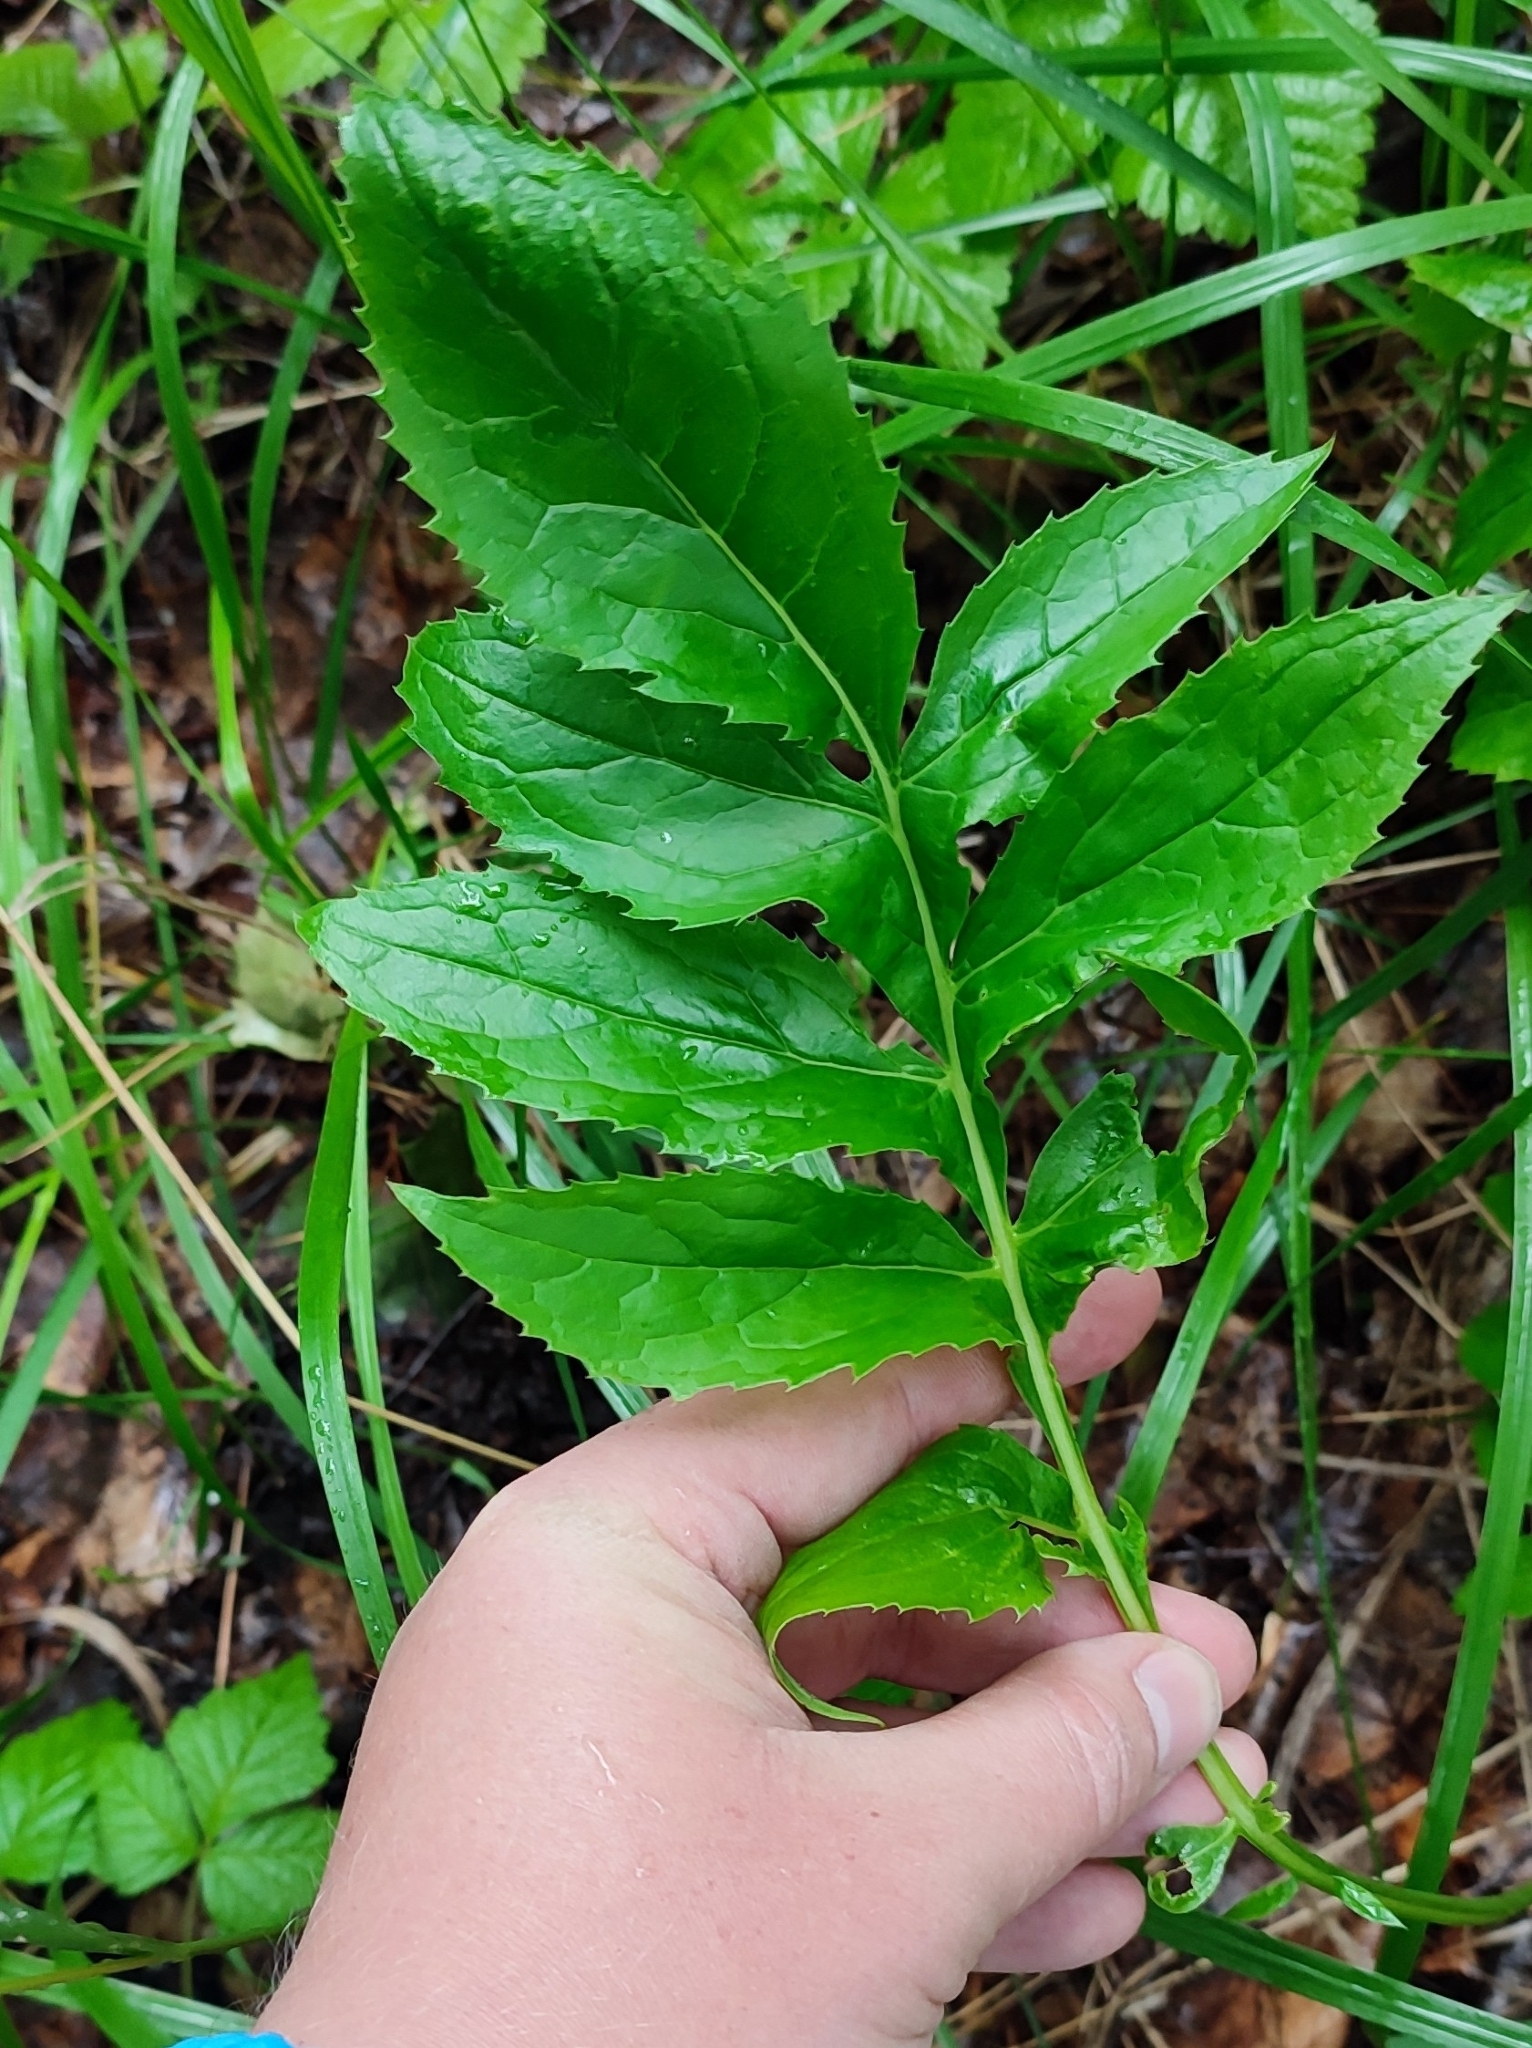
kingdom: Plantae
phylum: Tracheophyta
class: Magnoliopsida
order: Asterales
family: Asteraceae
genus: Serratula
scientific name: Serratula coronata
